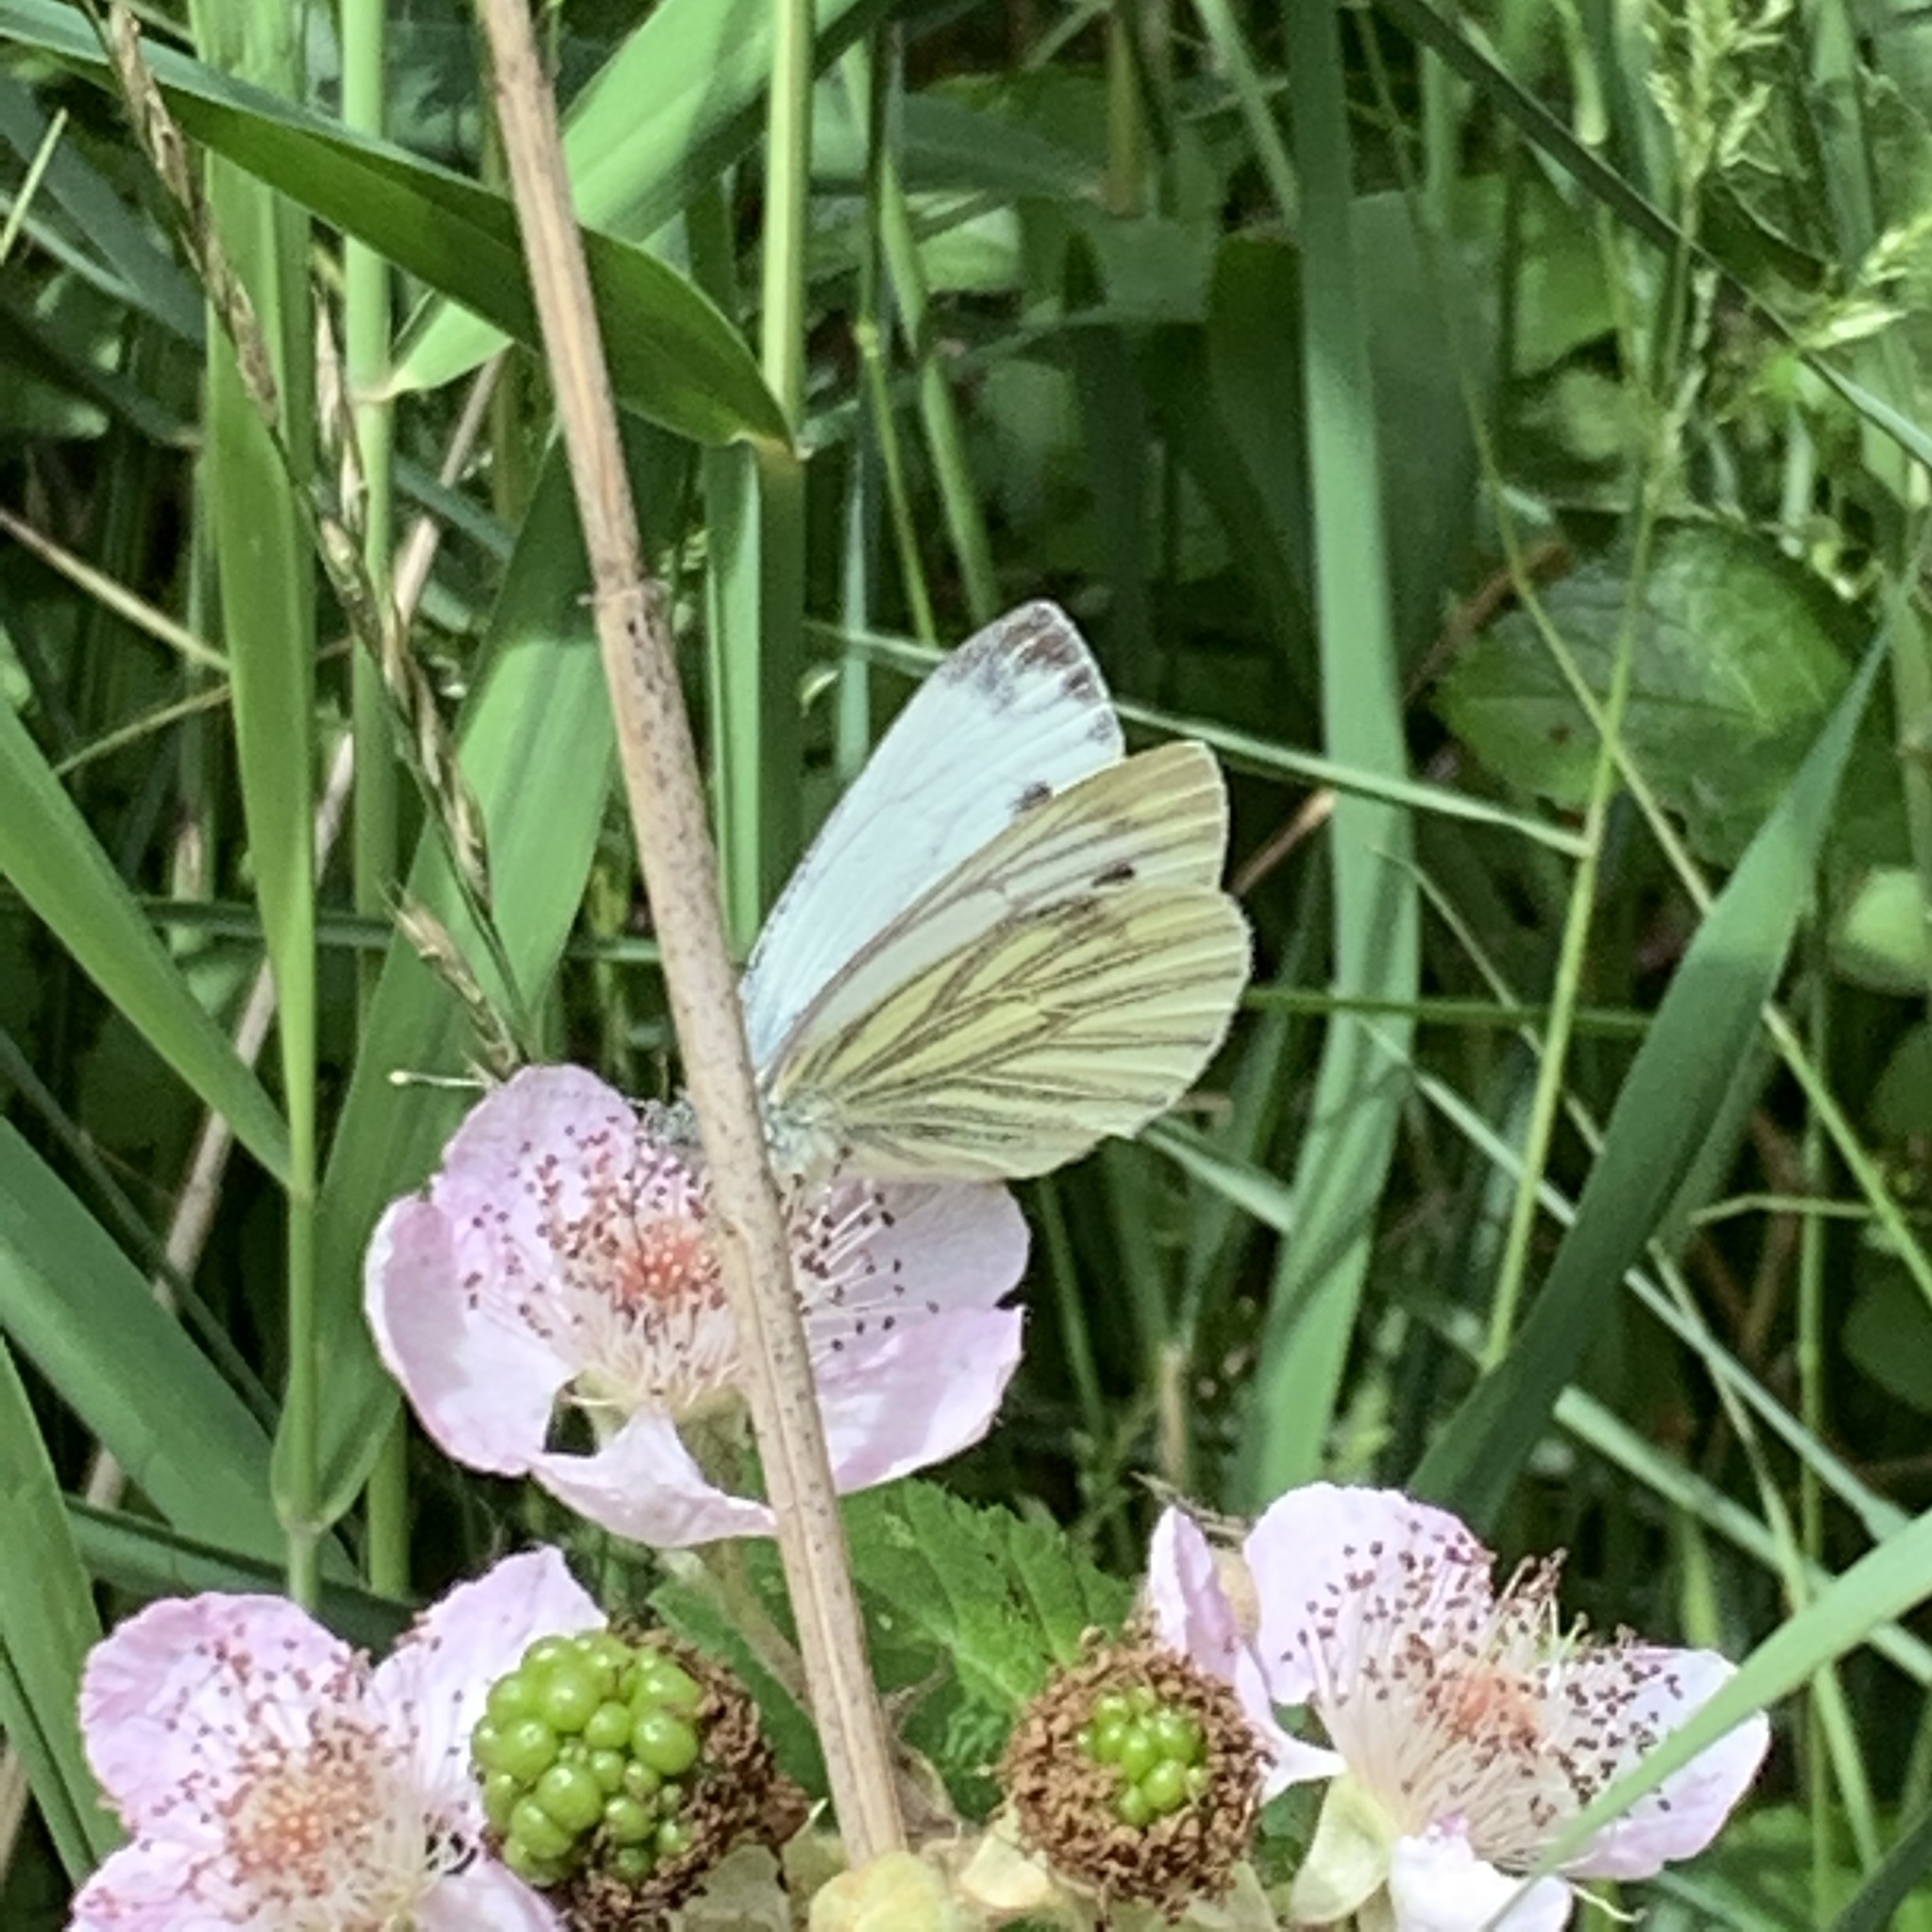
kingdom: Animalia
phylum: Arthropoda
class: Insecta
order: Lepidoptera
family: Pieridae
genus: Pieris
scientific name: Pieris napi
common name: Green-veined white
